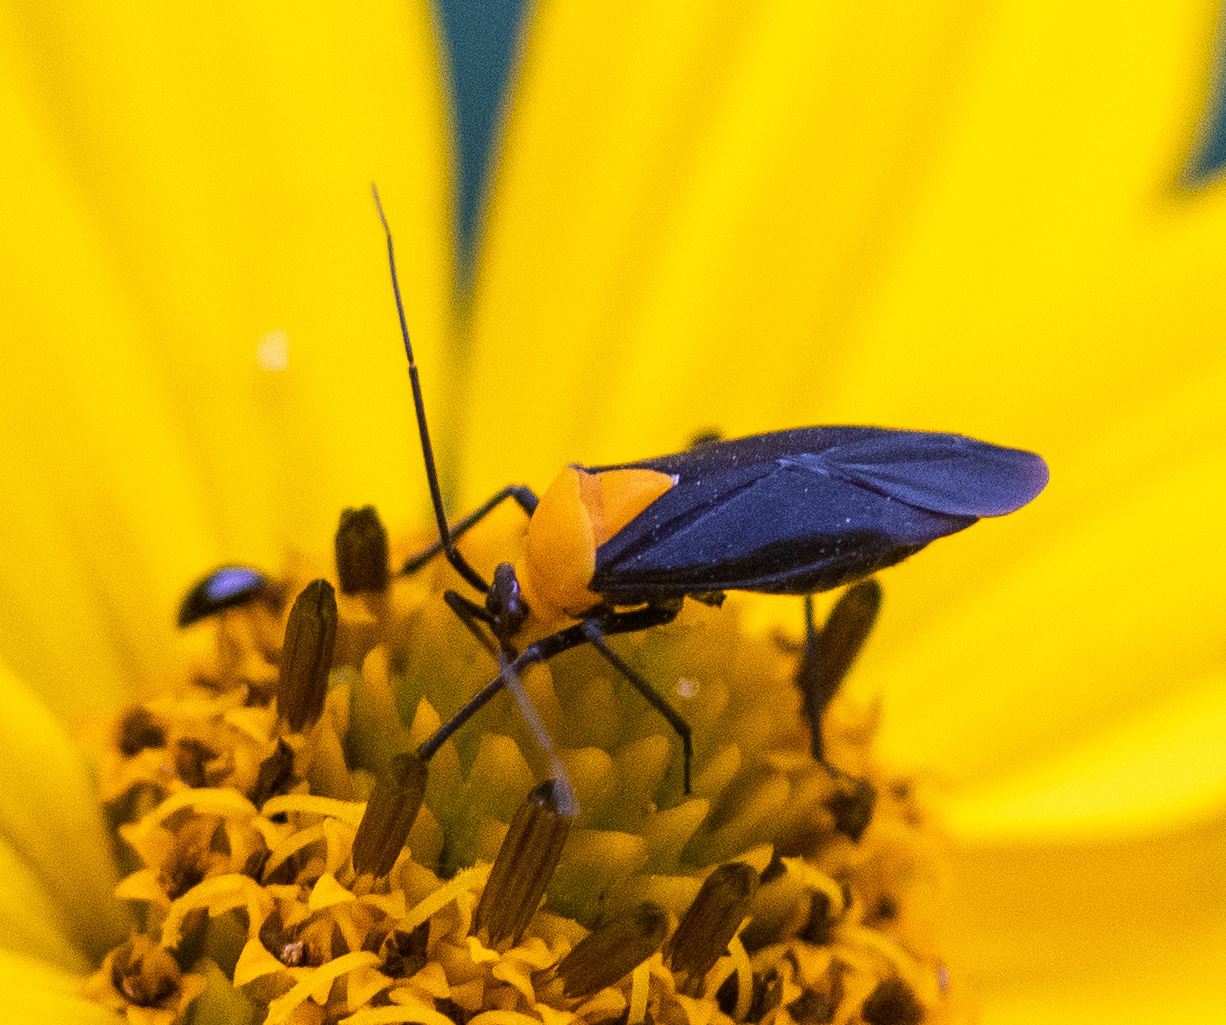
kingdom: Animalia
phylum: Arthropoda
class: Insecta
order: Hemiptera
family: Miridae
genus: Prepops
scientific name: Prepops insitivus
